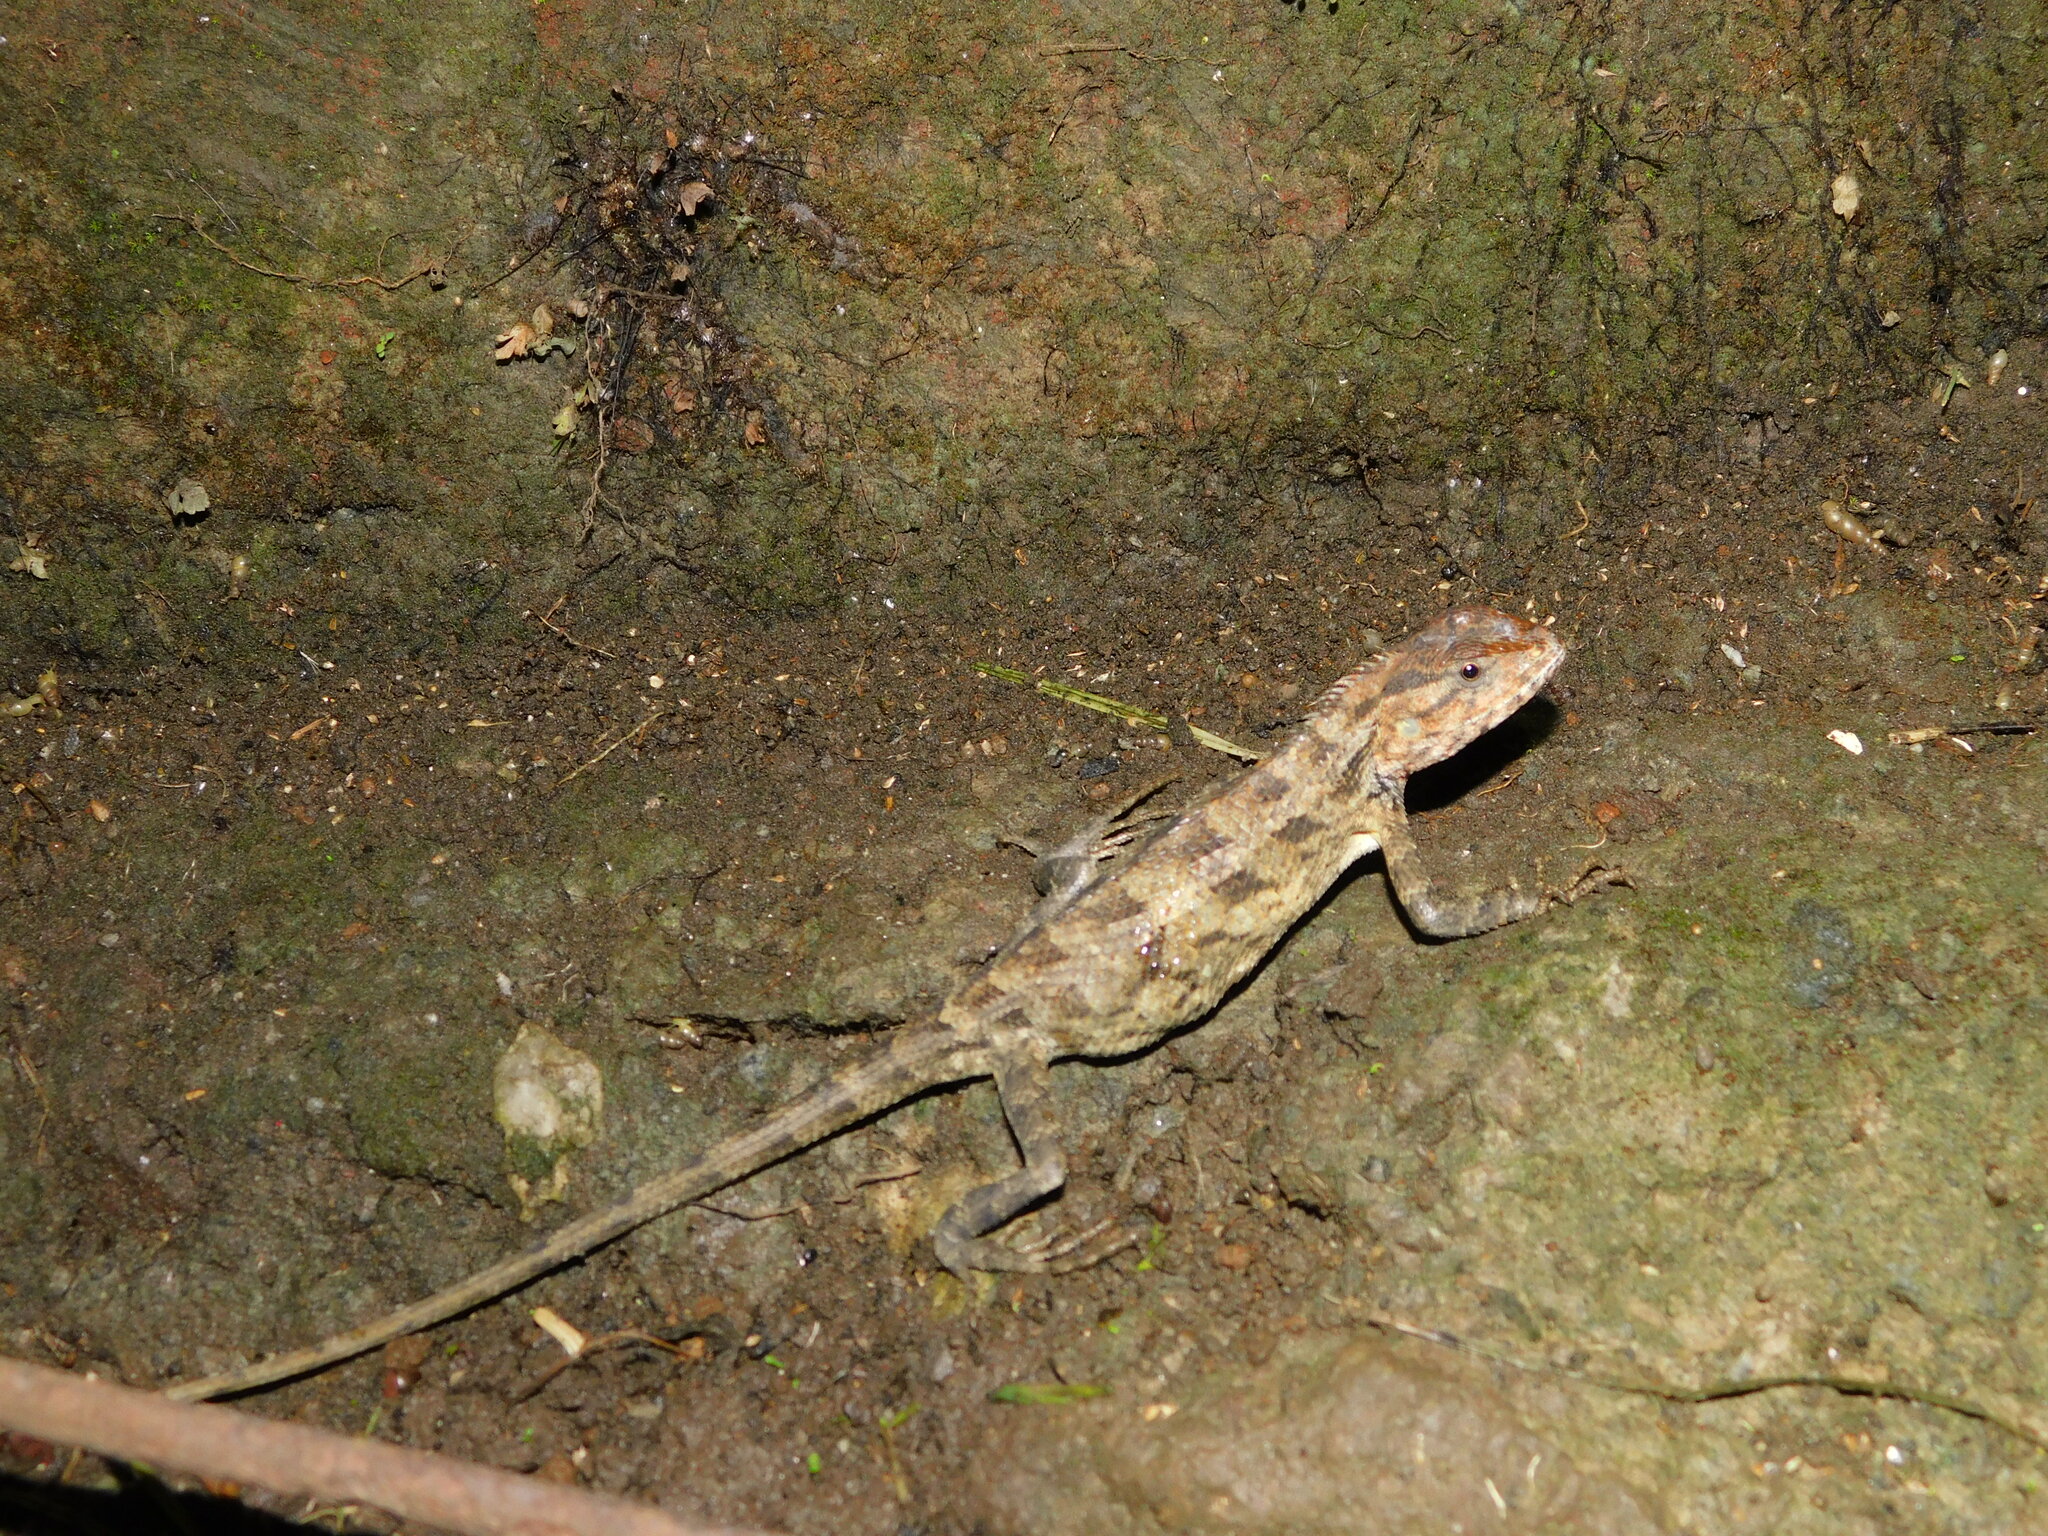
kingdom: Animalia
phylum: Chordata
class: Squamata
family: Agamidae
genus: Calotes
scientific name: Calotes versicolor
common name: Oriental garden lizard
